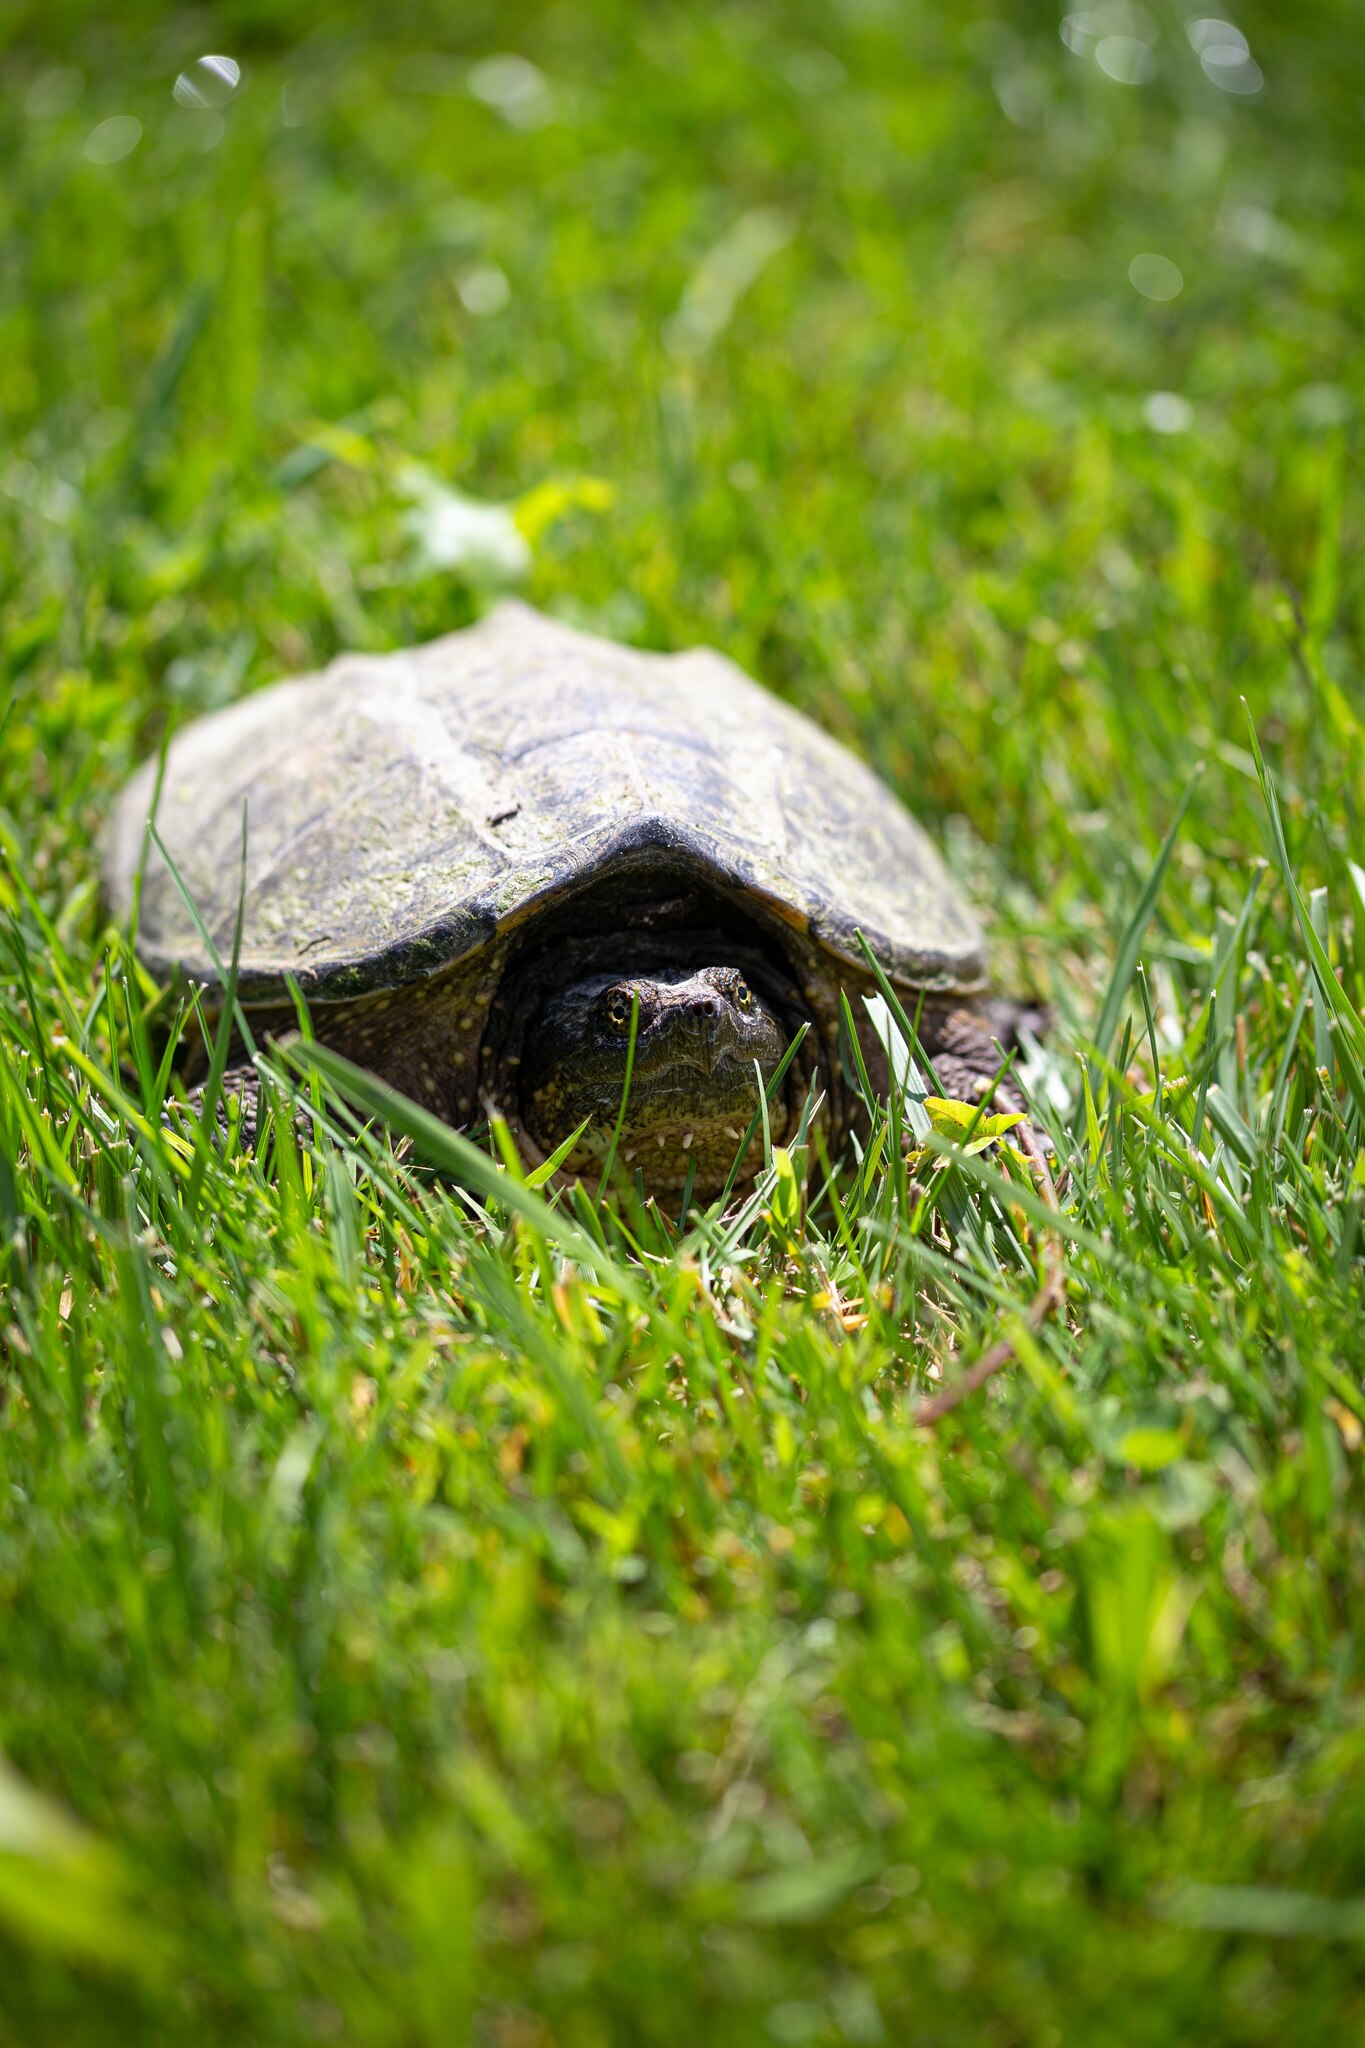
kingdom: Animalia
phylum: Chordata
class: Testudines
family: Chelydridae
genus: Chelydra
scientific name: Chelydra serpentina
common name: Common snapping turtle
